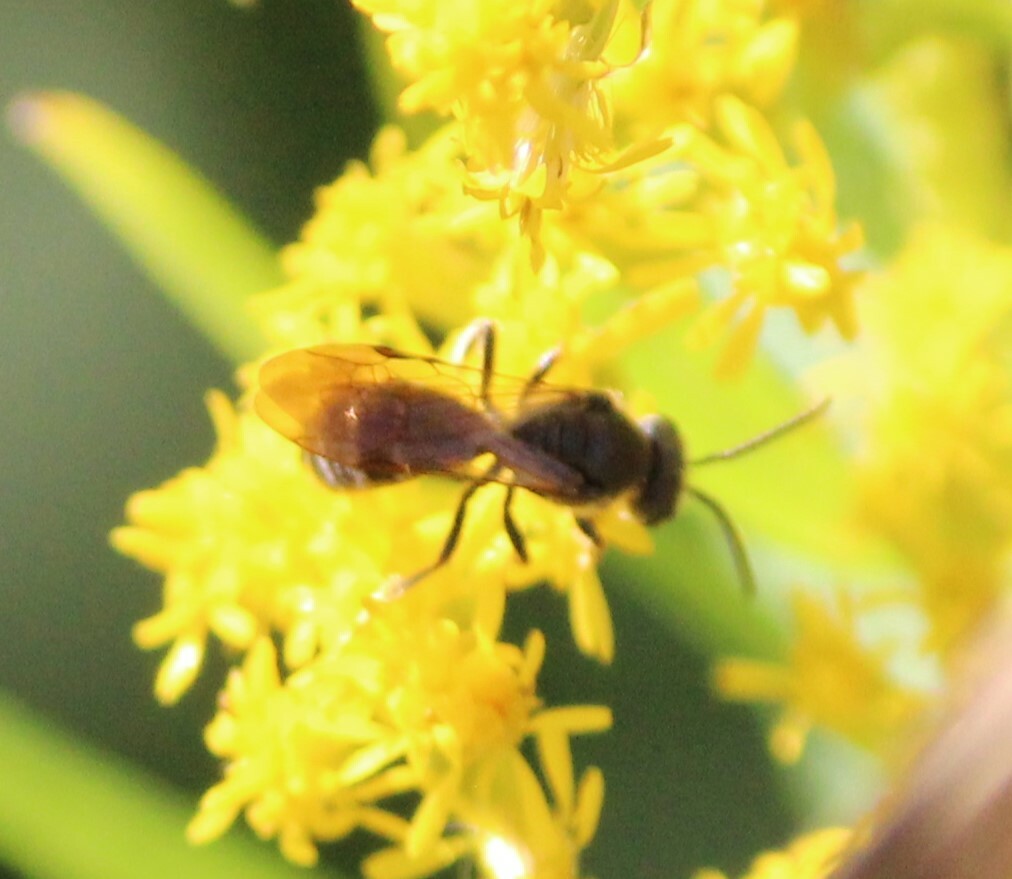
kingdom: Animalia
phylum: Arthropoda
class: Insecta
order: Hymenoptera
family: Halictidae
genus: Lasioglossum
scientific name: Lasioglossum fuscipenne
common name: Brown-winged sweat bee
